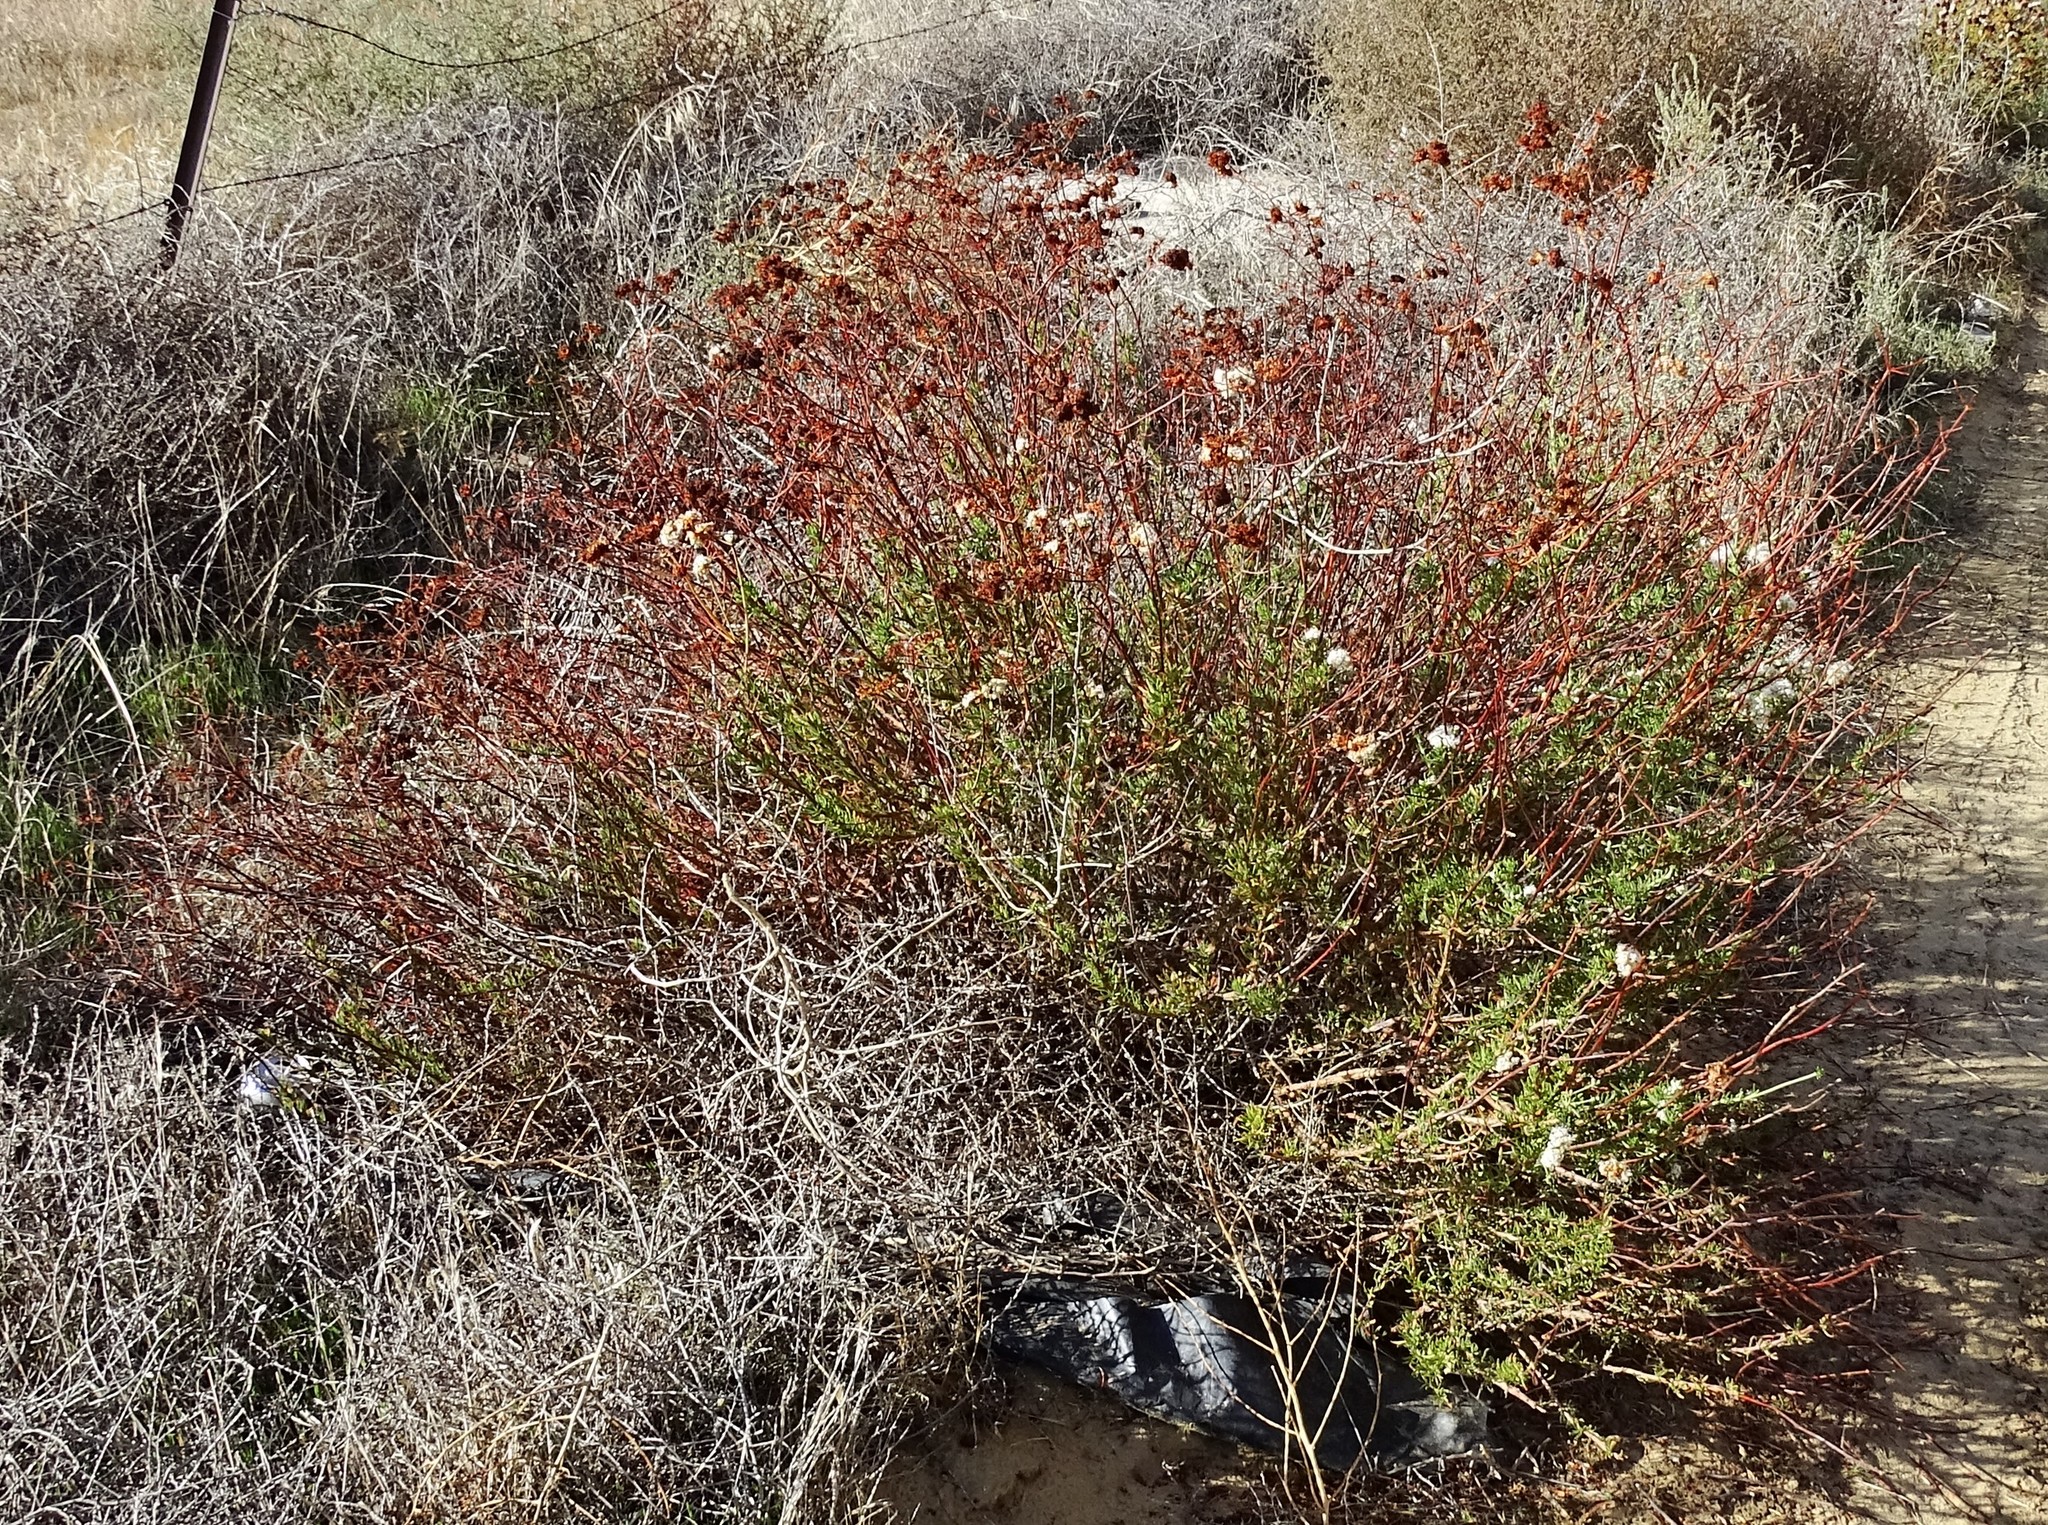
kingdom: Plantae
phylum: Tracheophyta
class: Magnoliopsida
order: Caryophyllales
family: Polygonaceae
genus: Eriogonum
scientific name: Eriogonum fasciculatum
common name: California wild buckwheat
